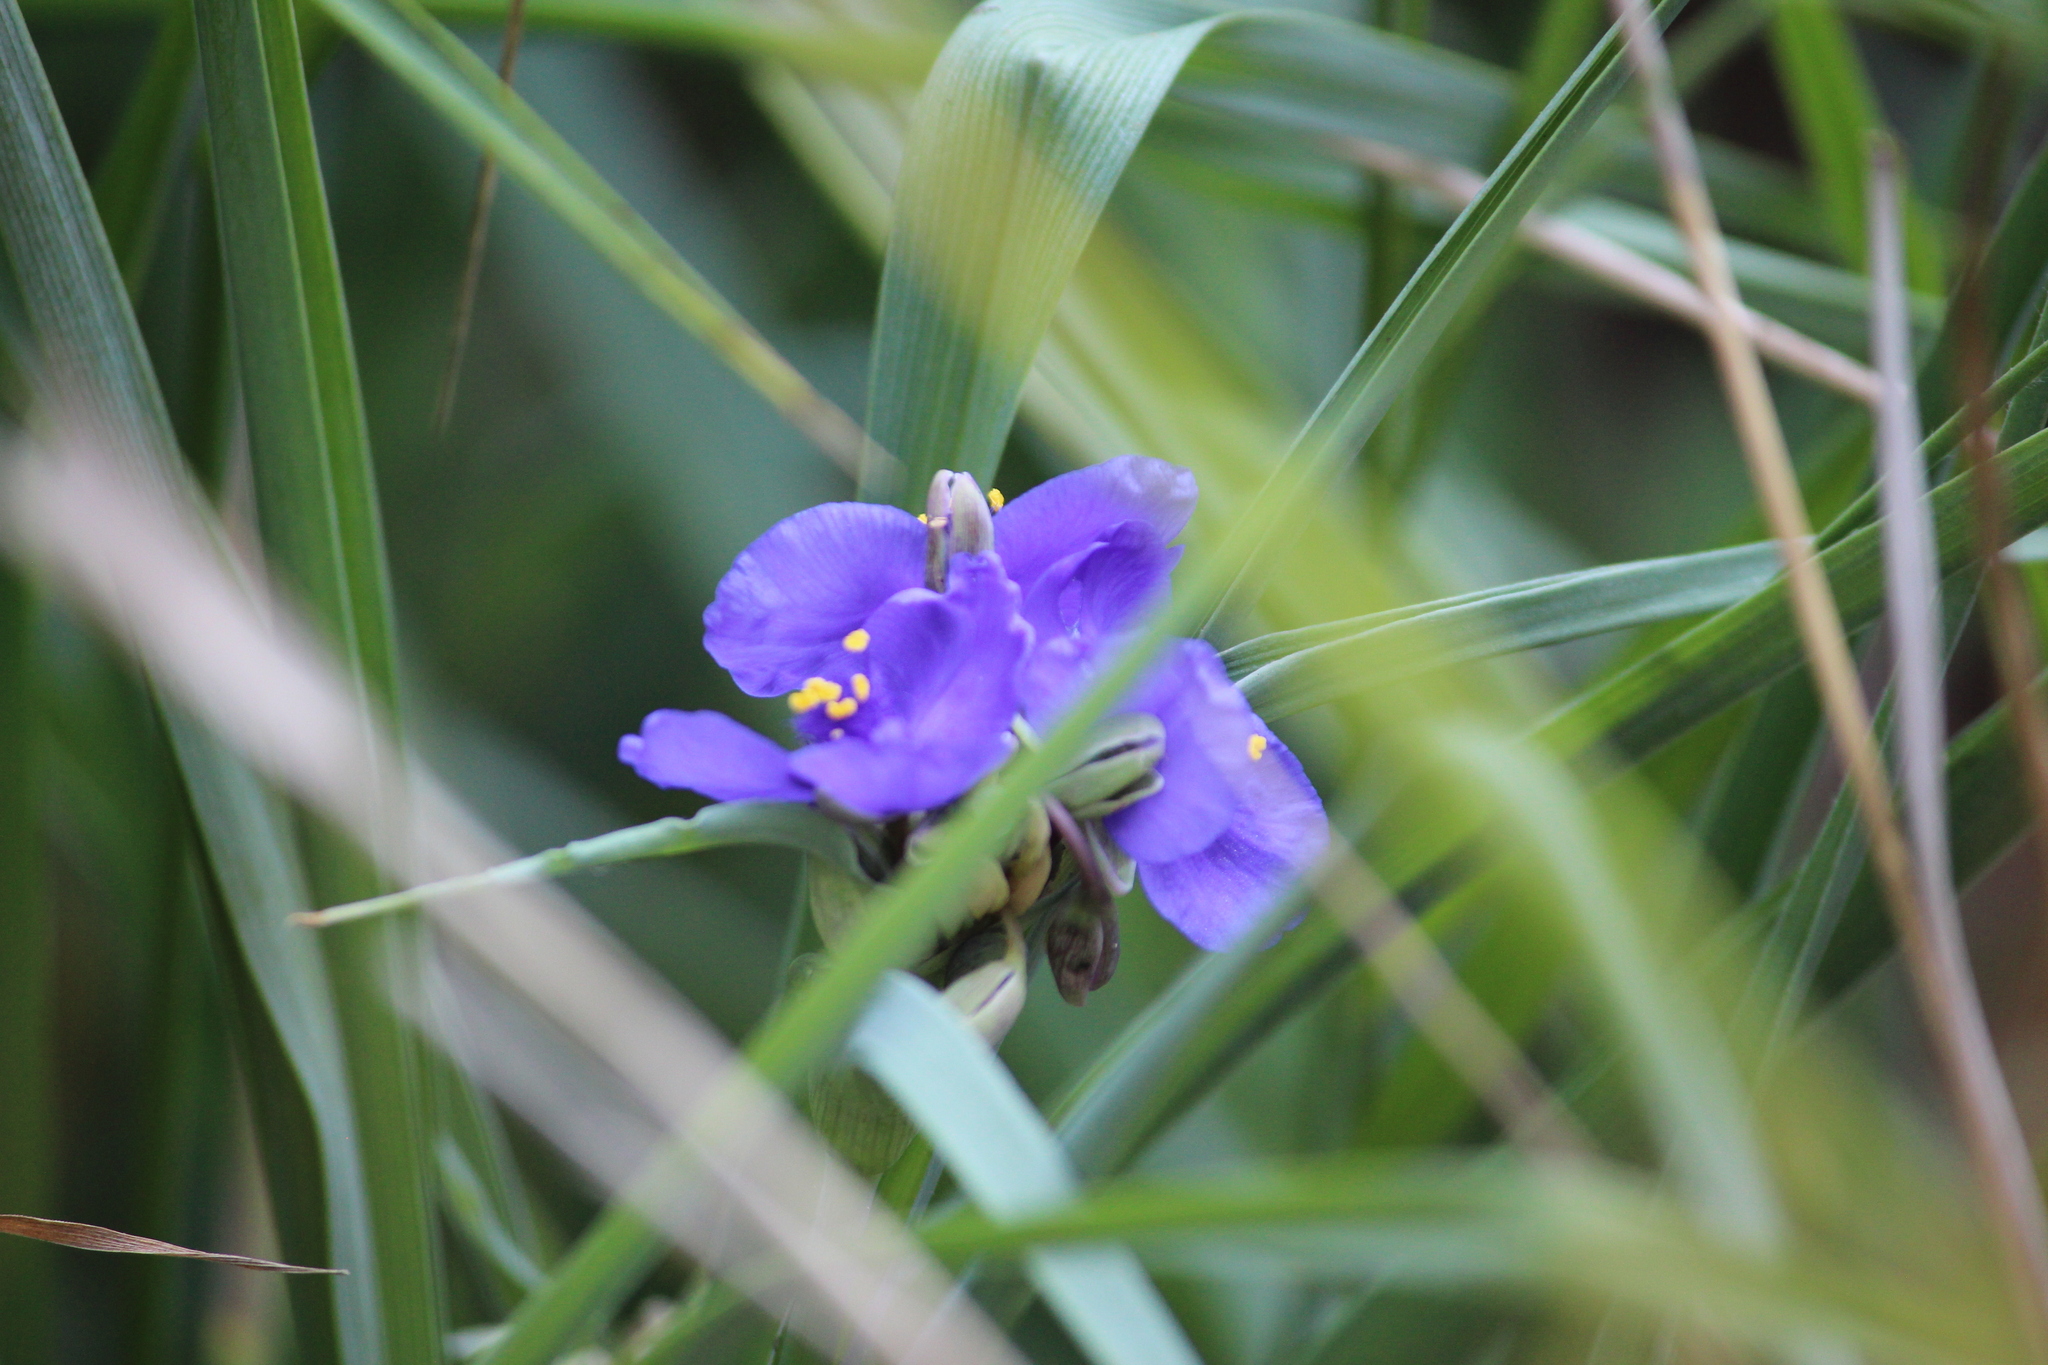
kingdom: Plantae
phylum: Tracheophyta
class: Liliopsida
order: Commelinales
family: Commelinaceae
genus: Tradescantia
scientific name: Tradescantia ohiensis
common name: Ohio spiderwort
